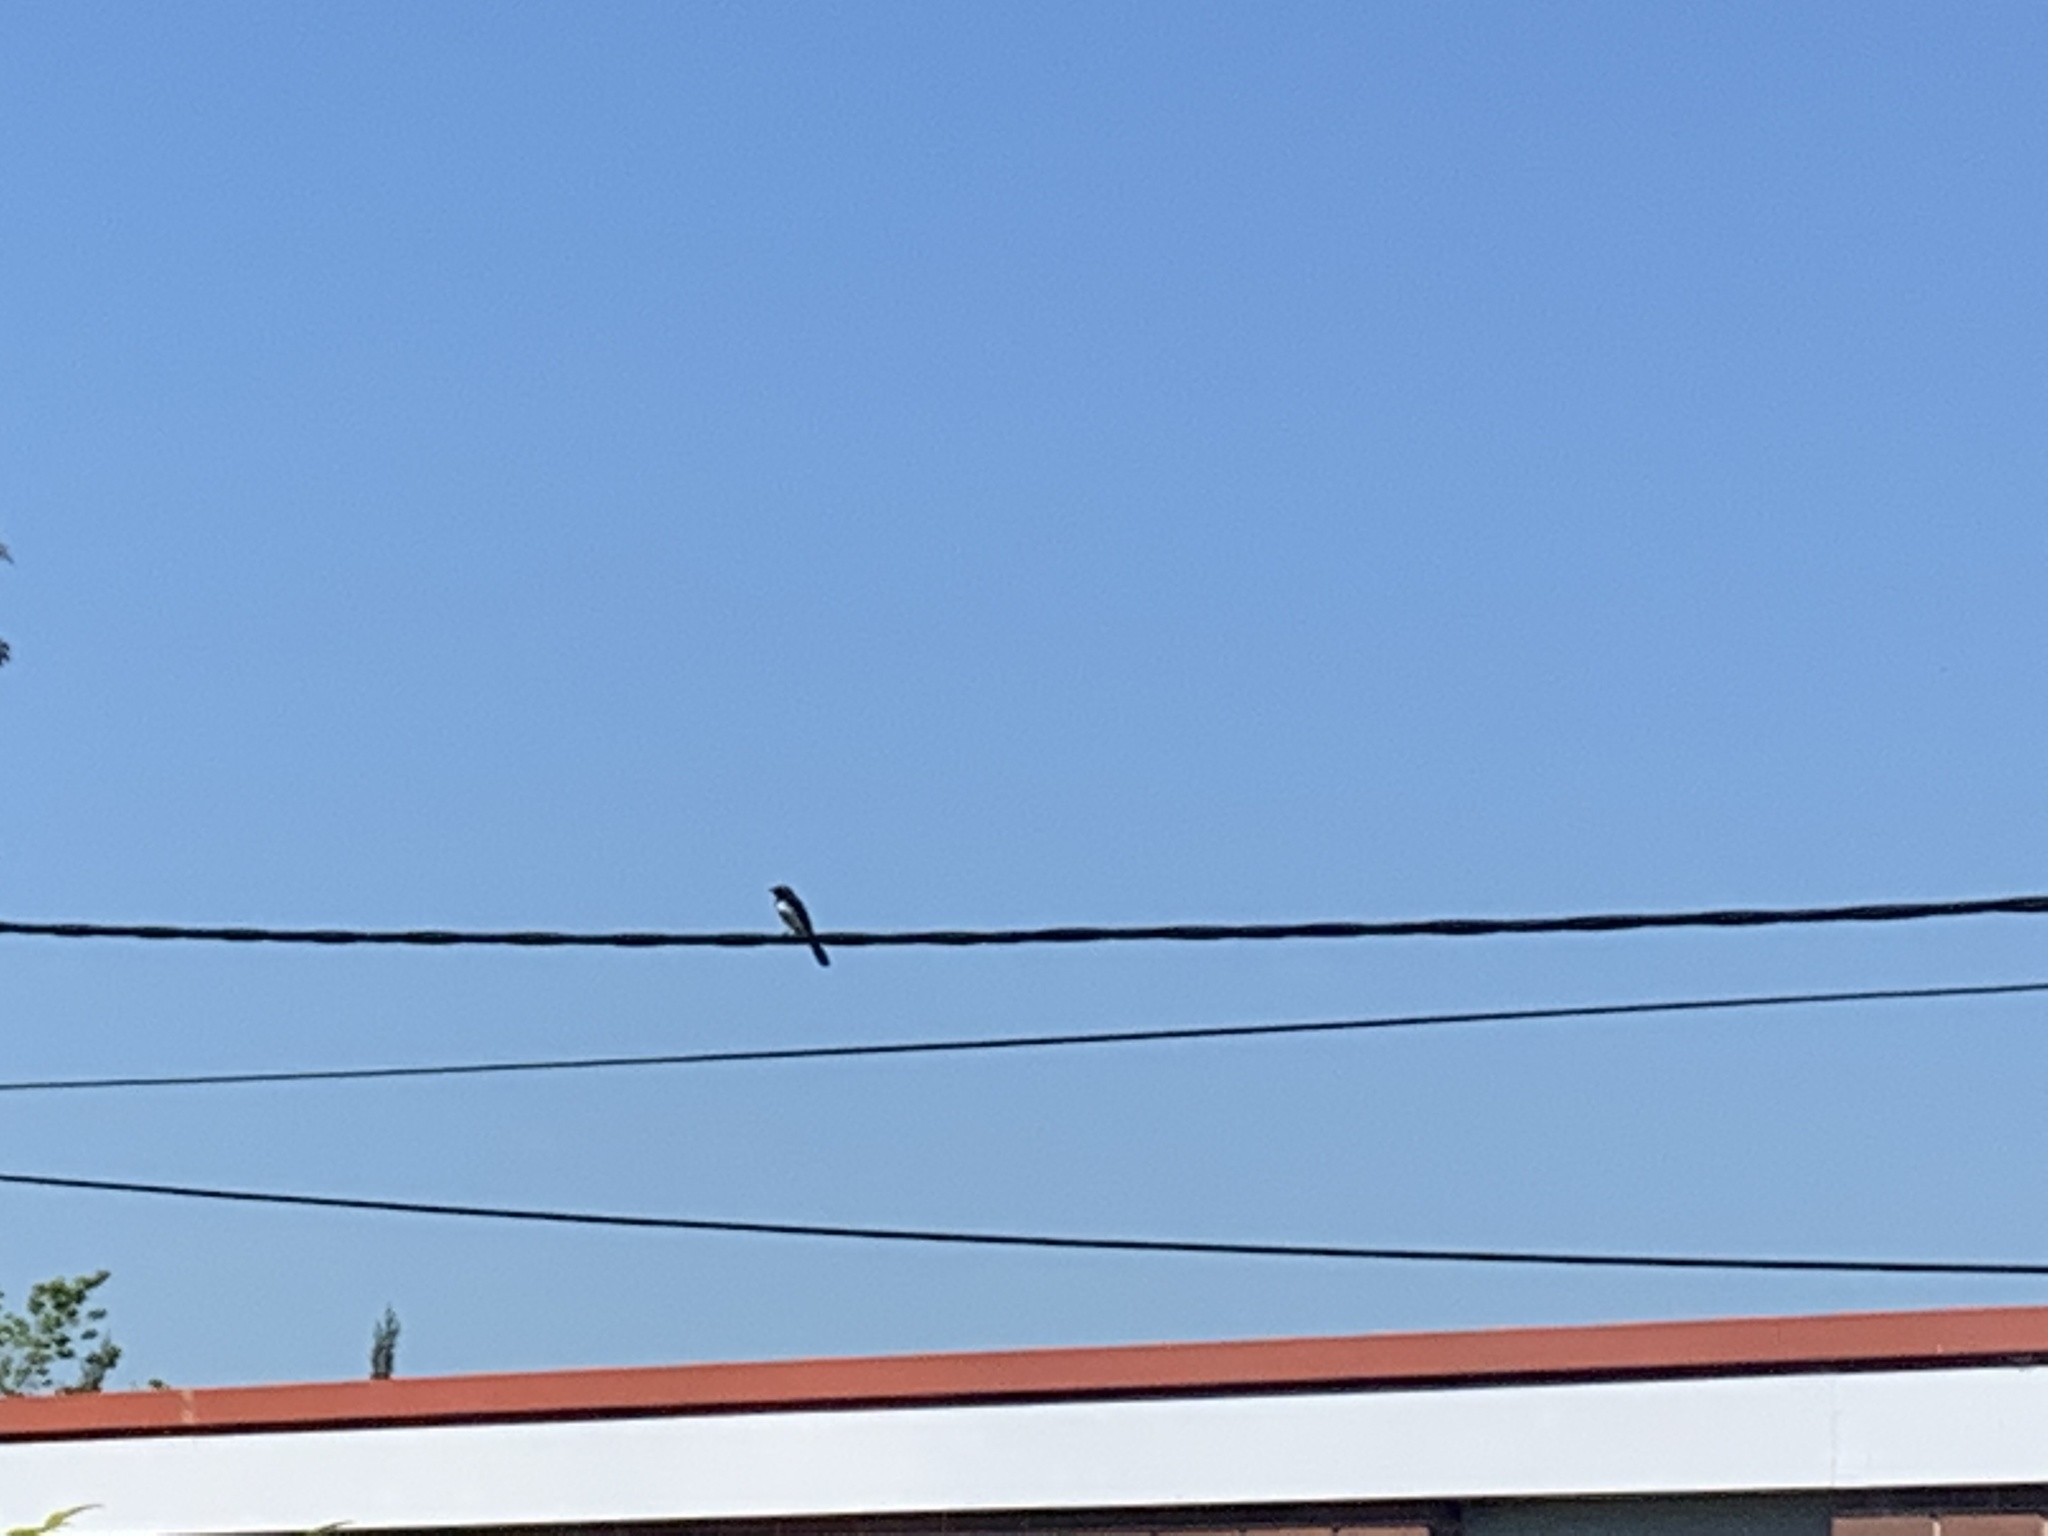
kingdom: Animalia
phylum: Chordata
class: Aves
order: Passeriformes
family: Rhipiduridae
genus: Rhipidura
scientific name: Rhipidura leucophrys
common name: Willie wagtail
